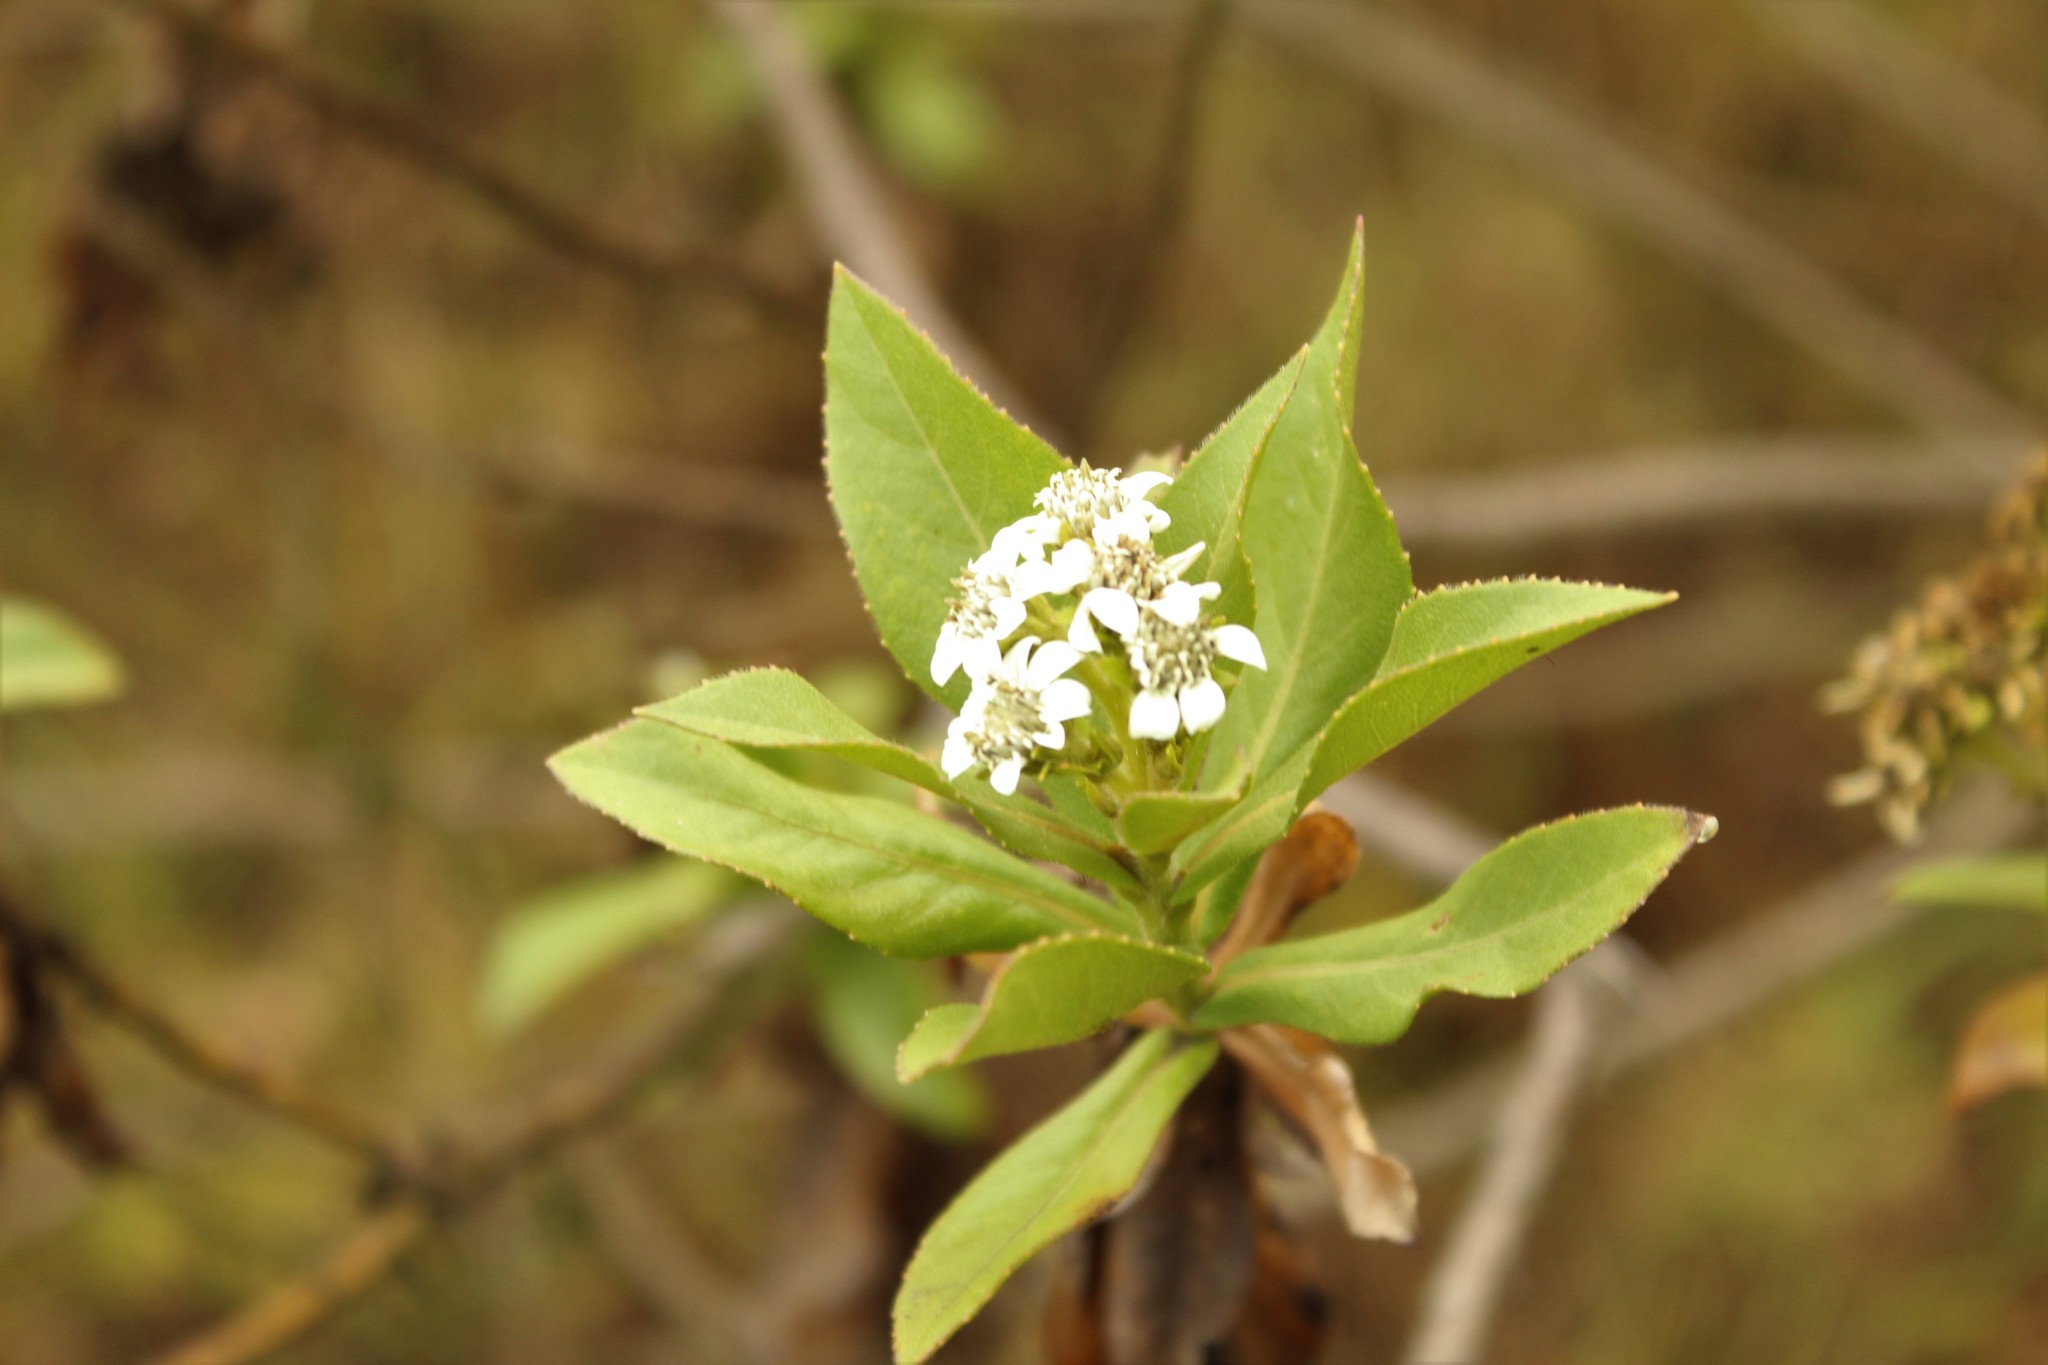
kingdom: Plantae
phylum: Tracheophyta
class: Magnoliopsida
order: Asterales
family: Asteraceae
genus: Verbesina
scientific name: Verbesina centroboyacana
